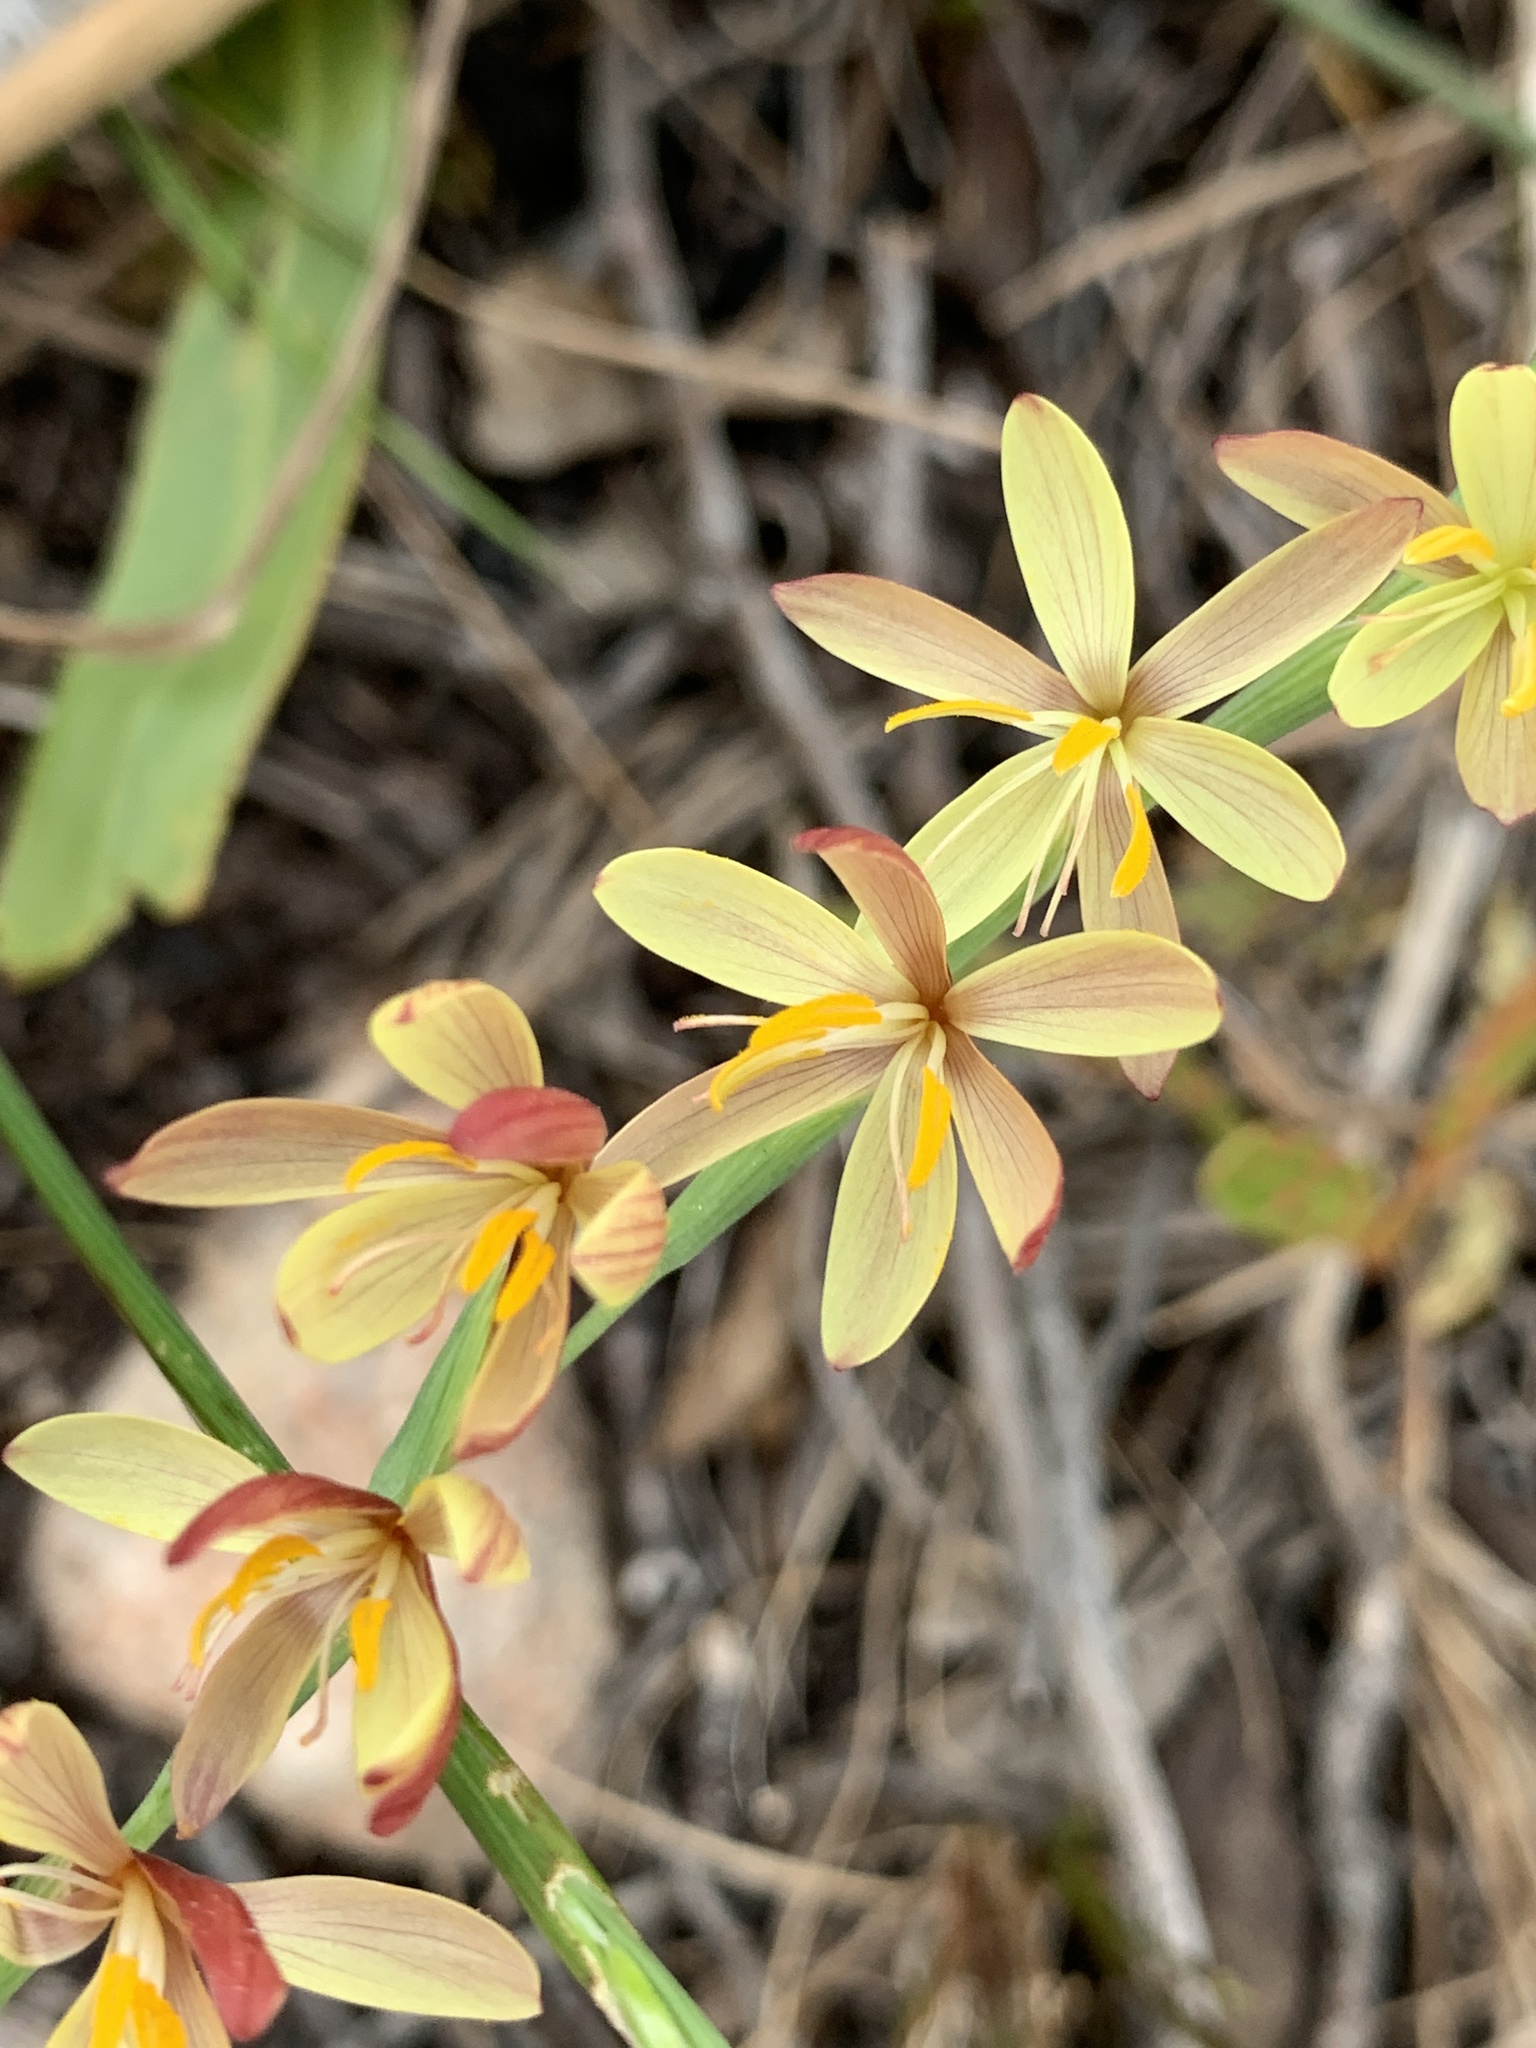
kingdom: Plantae
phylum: Tracheophyta
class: Liliopsida
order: Asparagales
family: Iridaceae
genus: Hesperantha
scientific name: Hesperantha radiata
